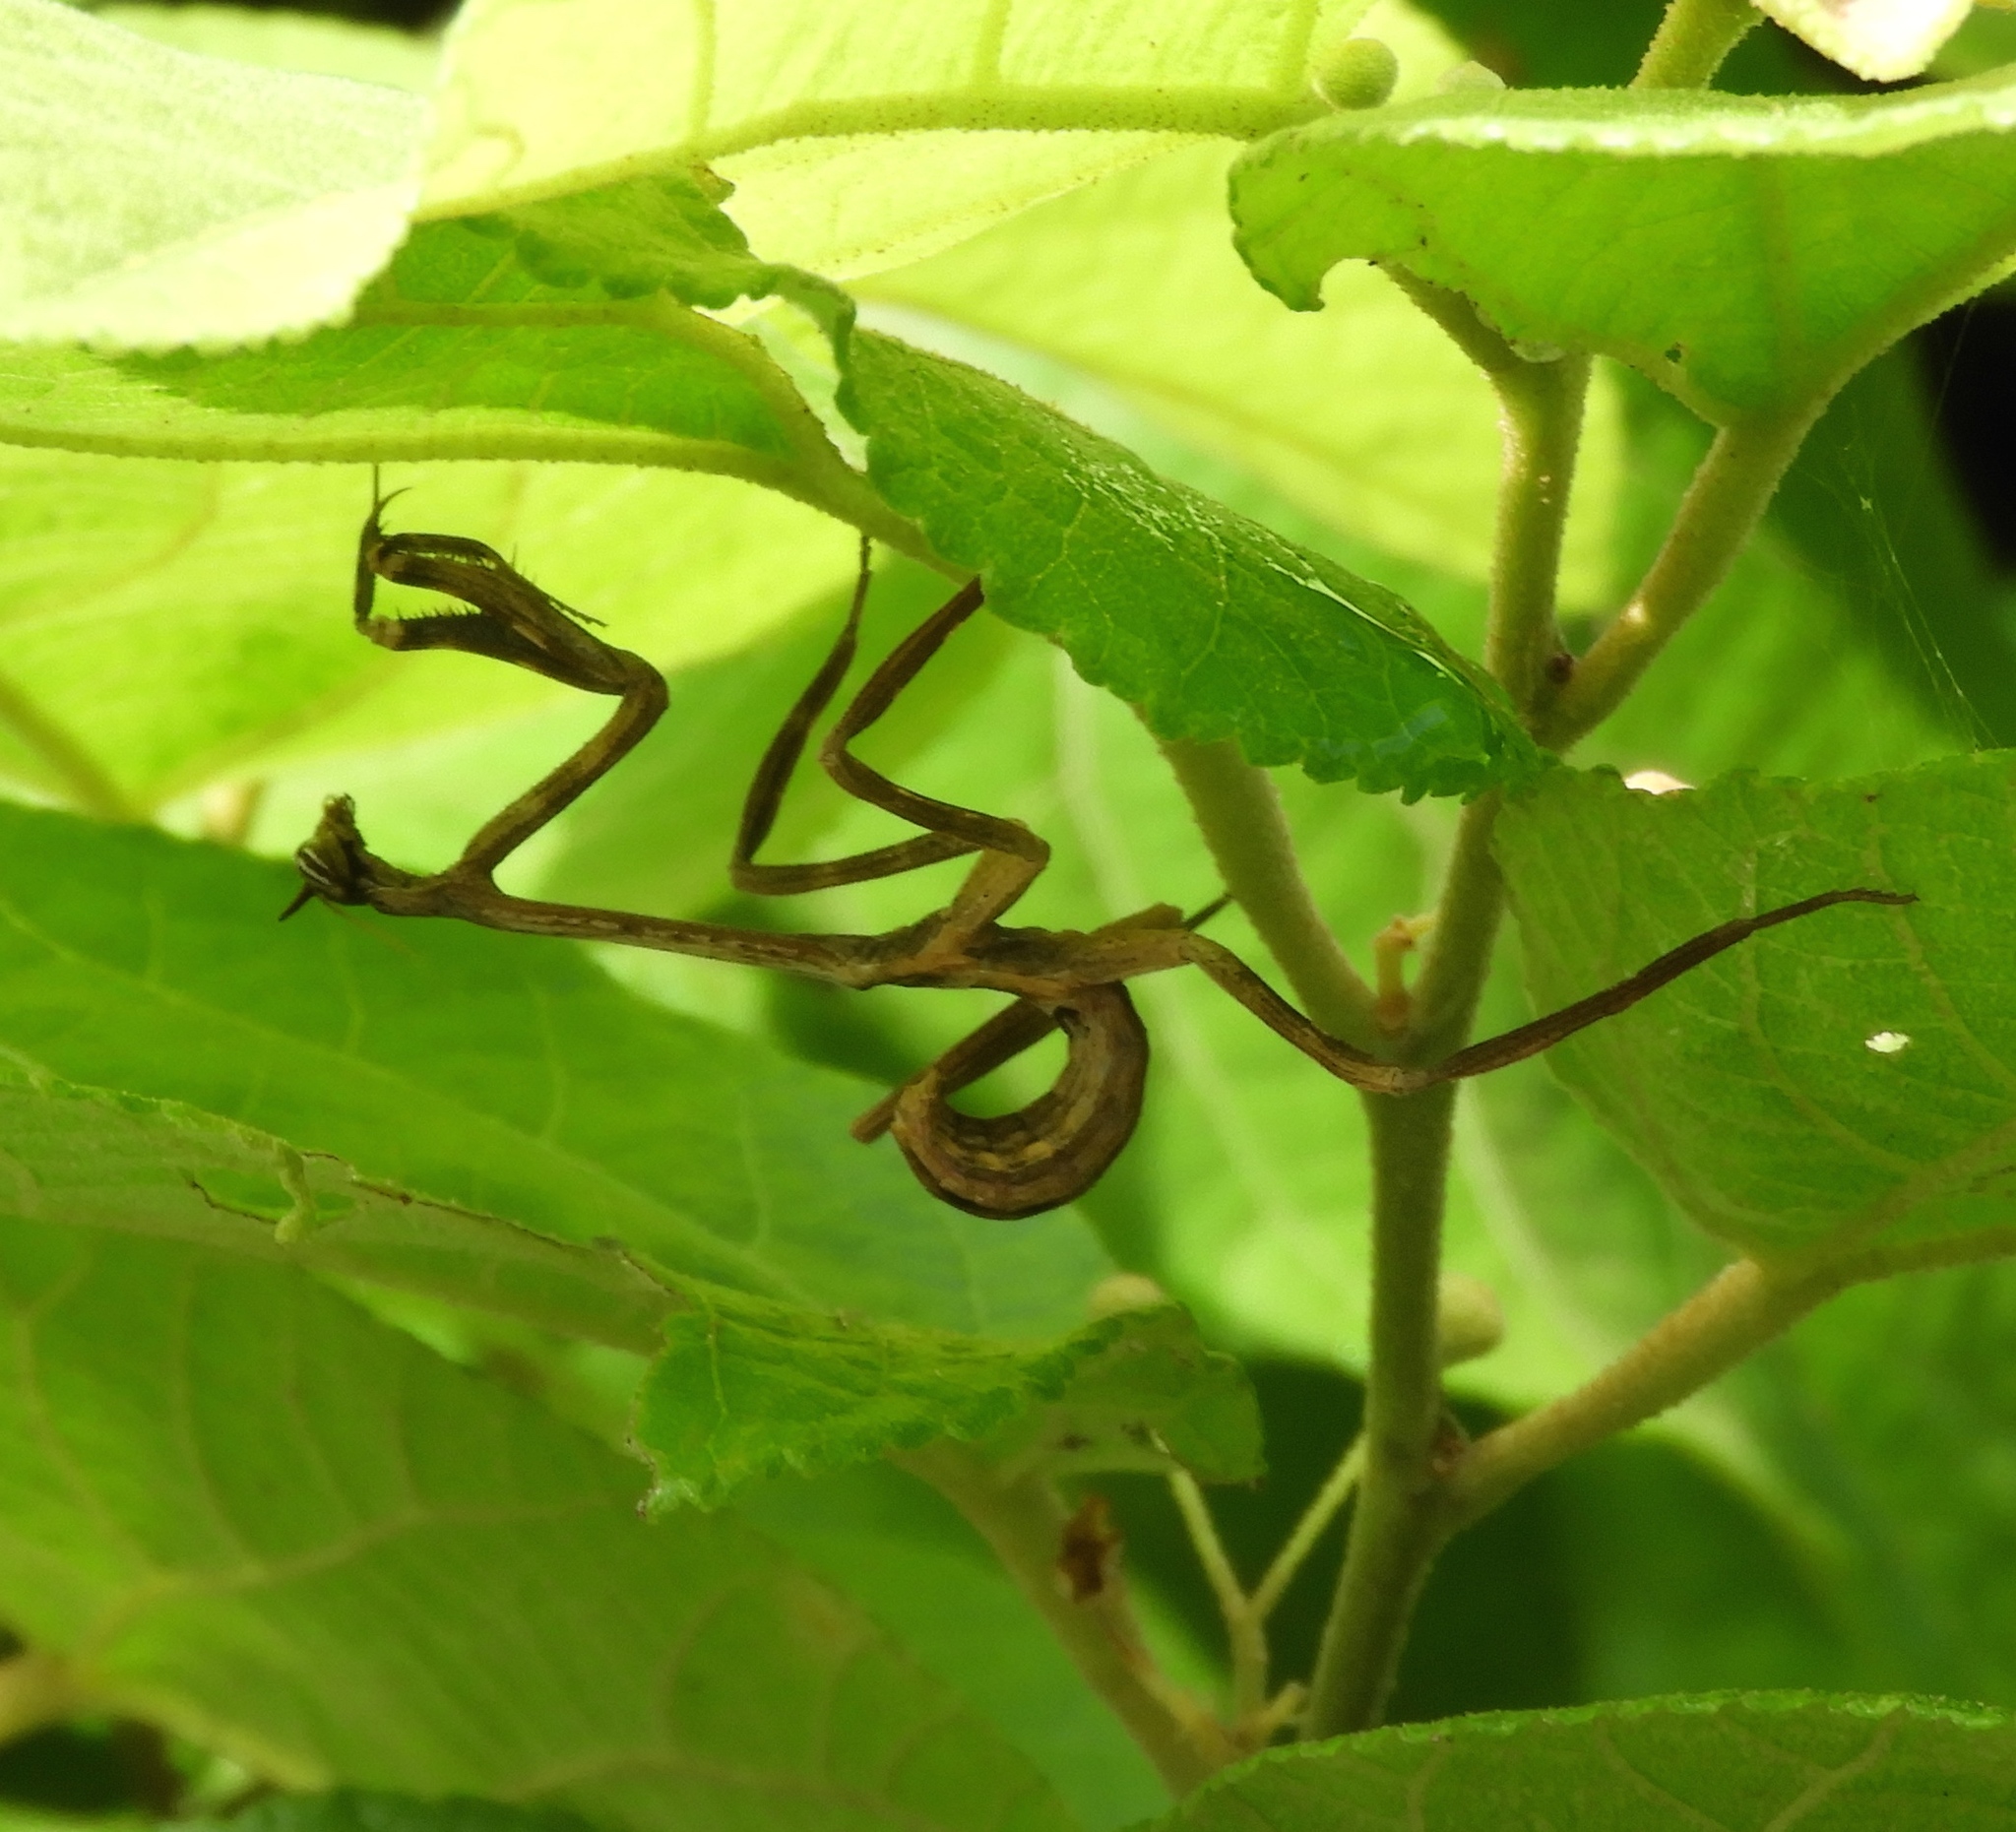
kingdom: Animalia
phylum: Arthropoda
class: Insecta
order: Mantodea
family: Mantidae
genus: Pseudovates
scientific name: Pseudovates chlorophaea
